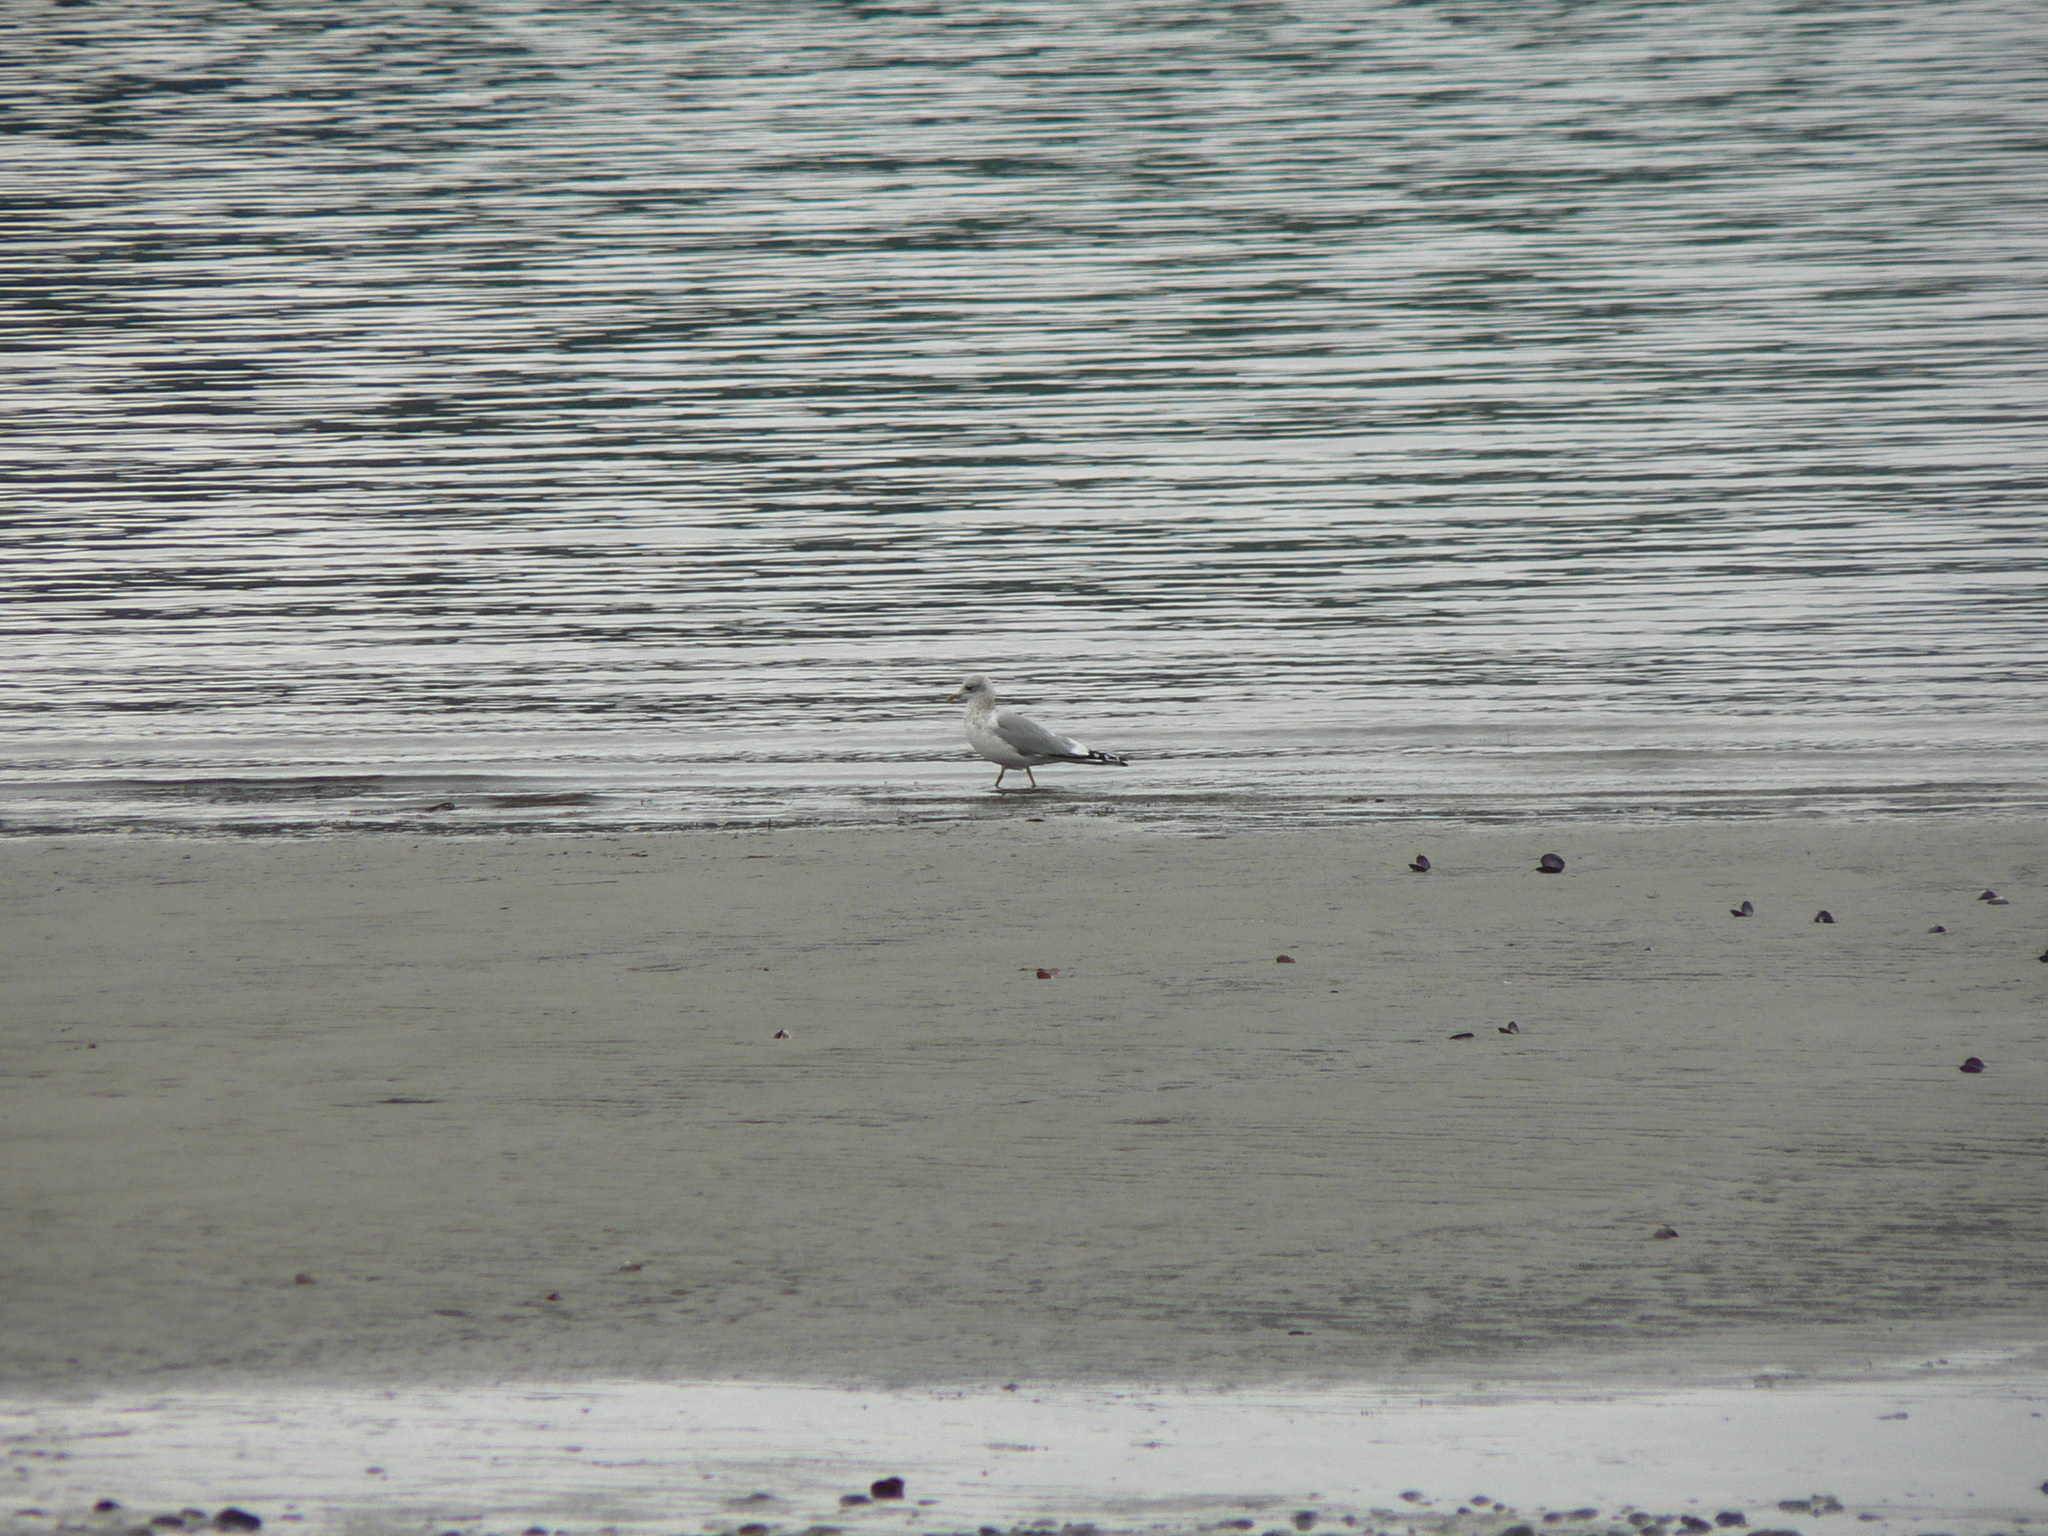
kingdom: Animalia
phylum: Chordata
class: Aves
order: Charadriiformes
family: Laridae
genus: Larus
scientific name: Larus brachyrhynchus
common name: Short-billed gull
